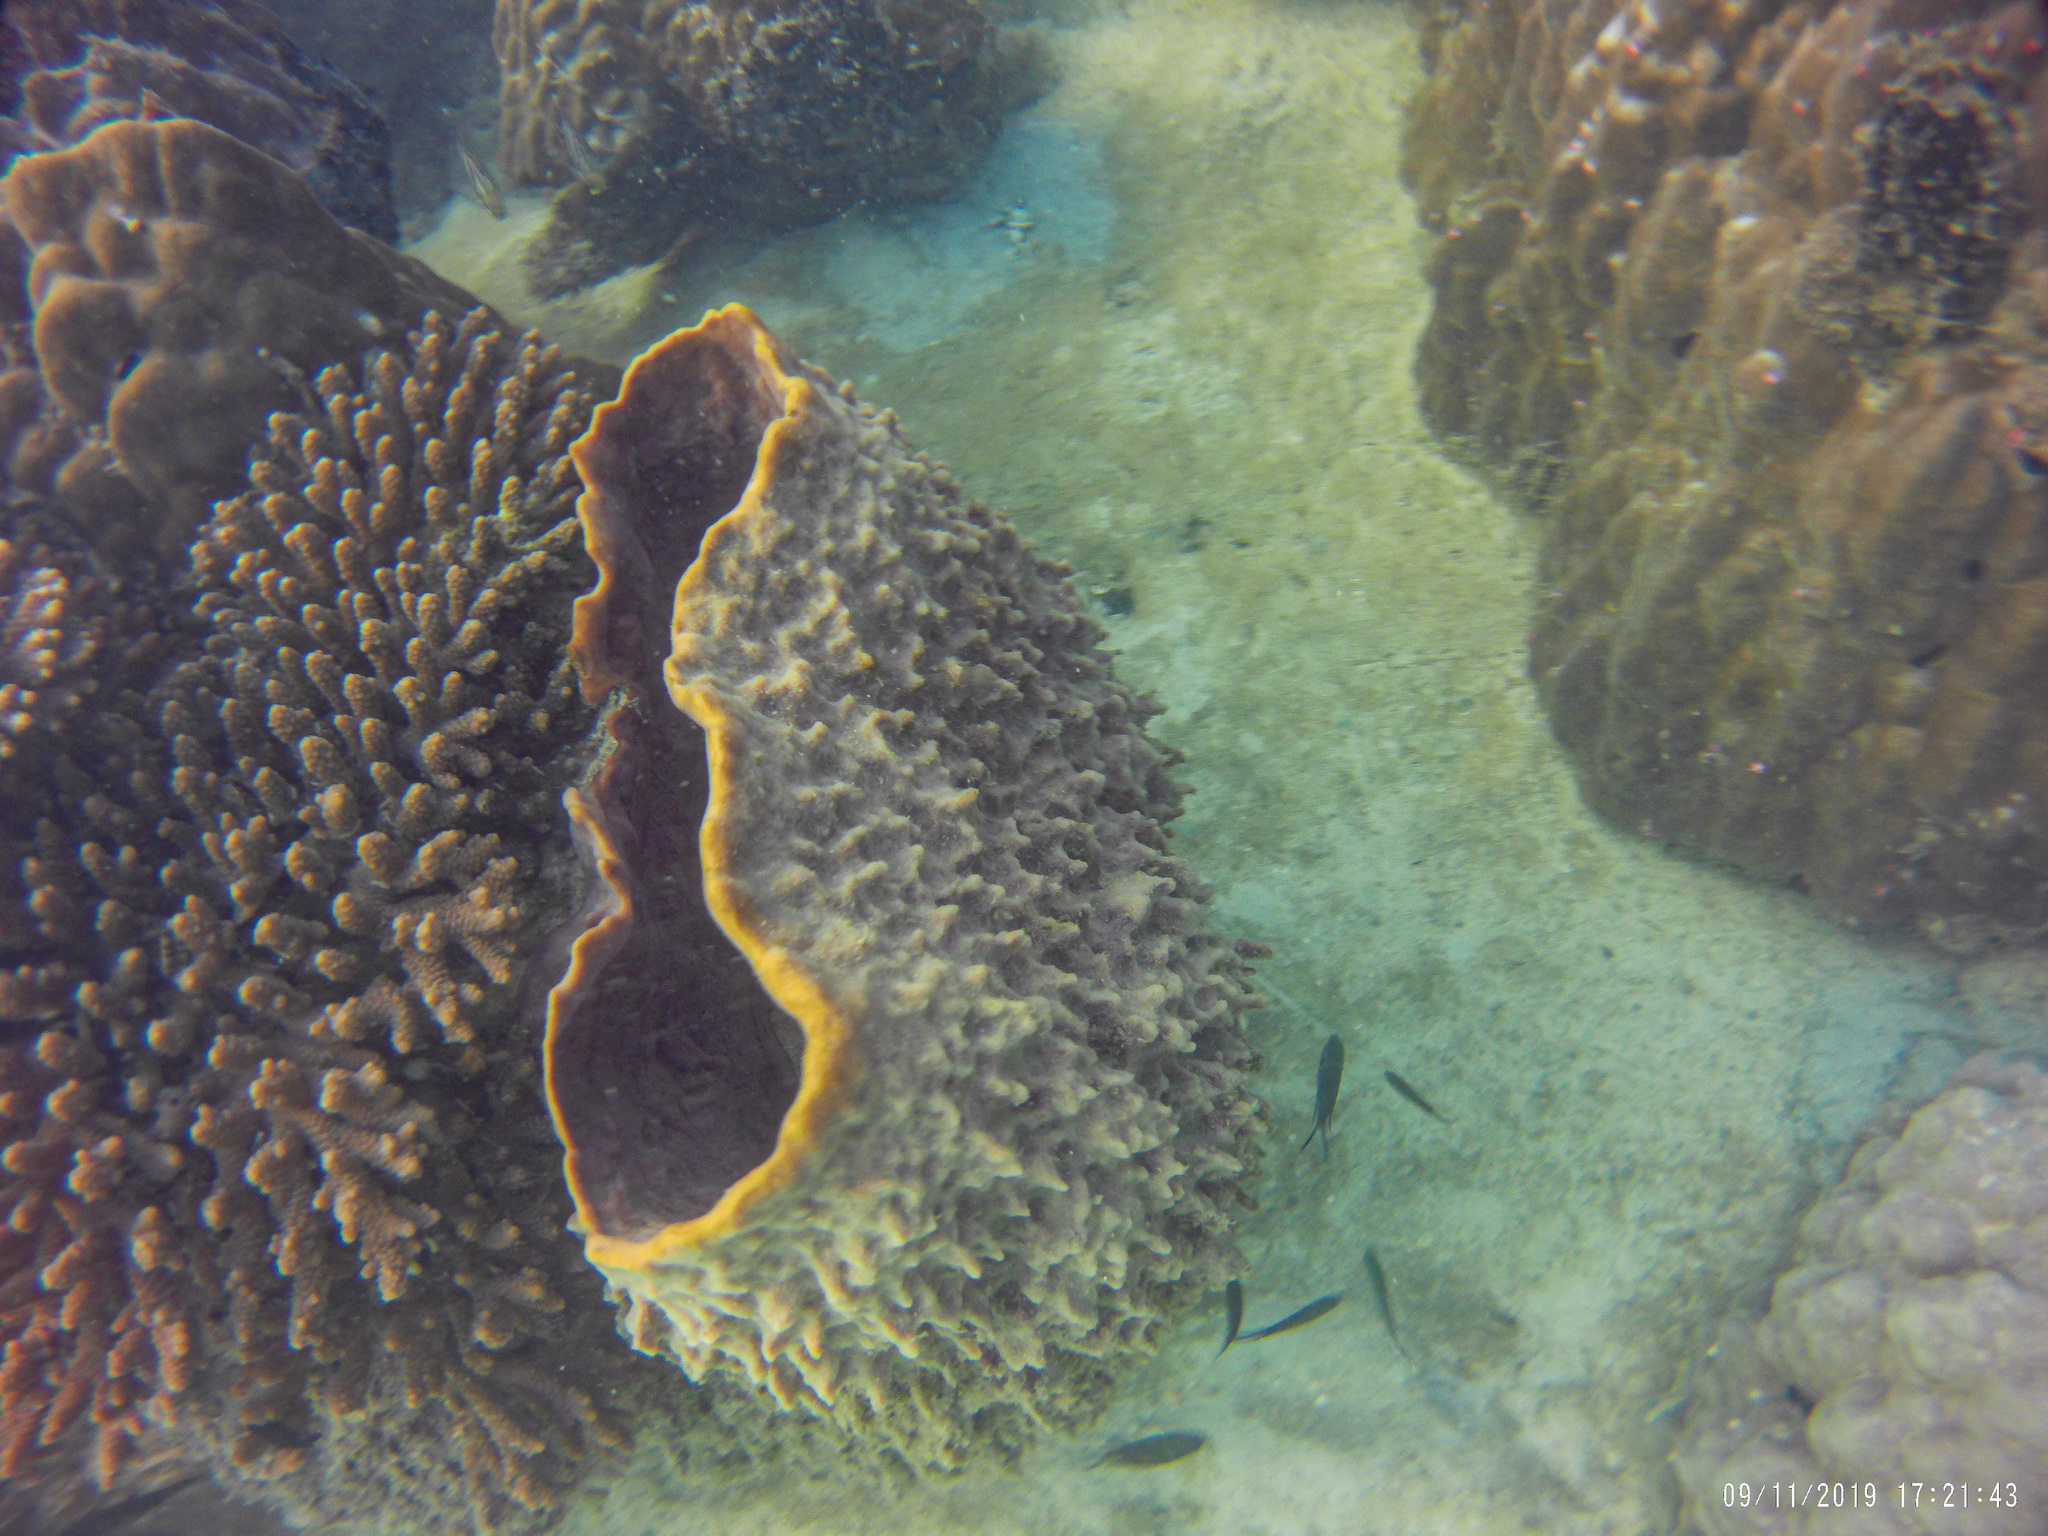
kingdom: Animalia
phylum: Porifera
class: Demospongiae
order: Haplosclerida
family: Petrosiidae
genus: Xestospongia
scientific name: Xestospongia testudinaria
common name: Barrel sponge
